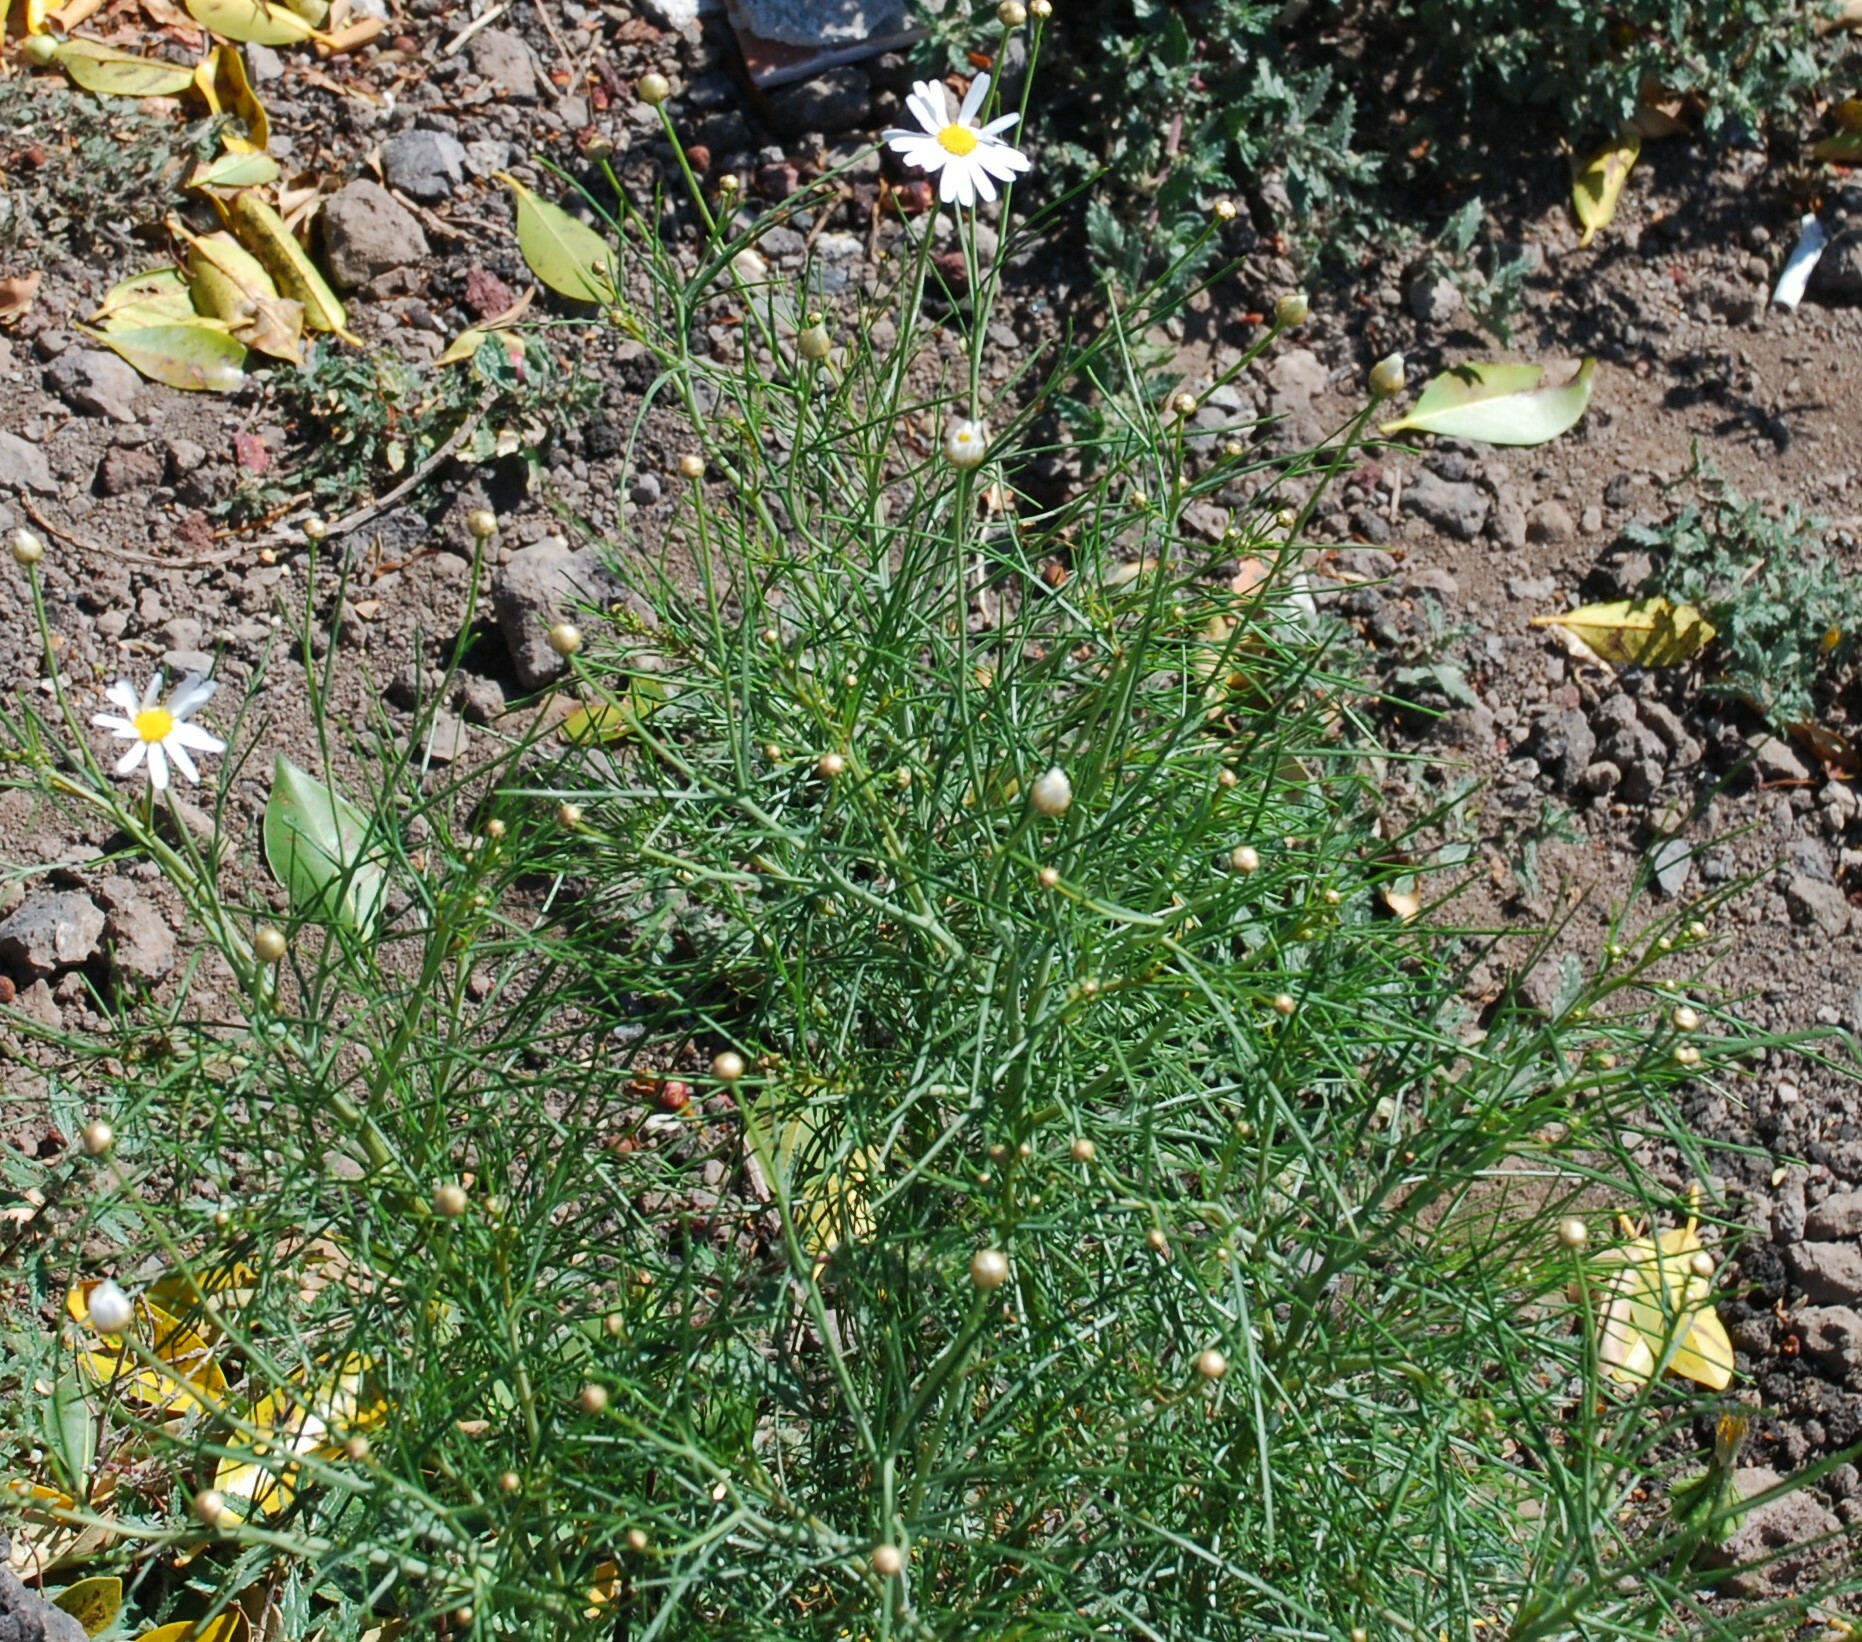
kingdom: Plantae
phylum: Tracheophyta
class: Magnoliopsida
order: Asterales
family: Asteraceae
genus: Argyranthemum
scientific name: Argyranthemum gracile
